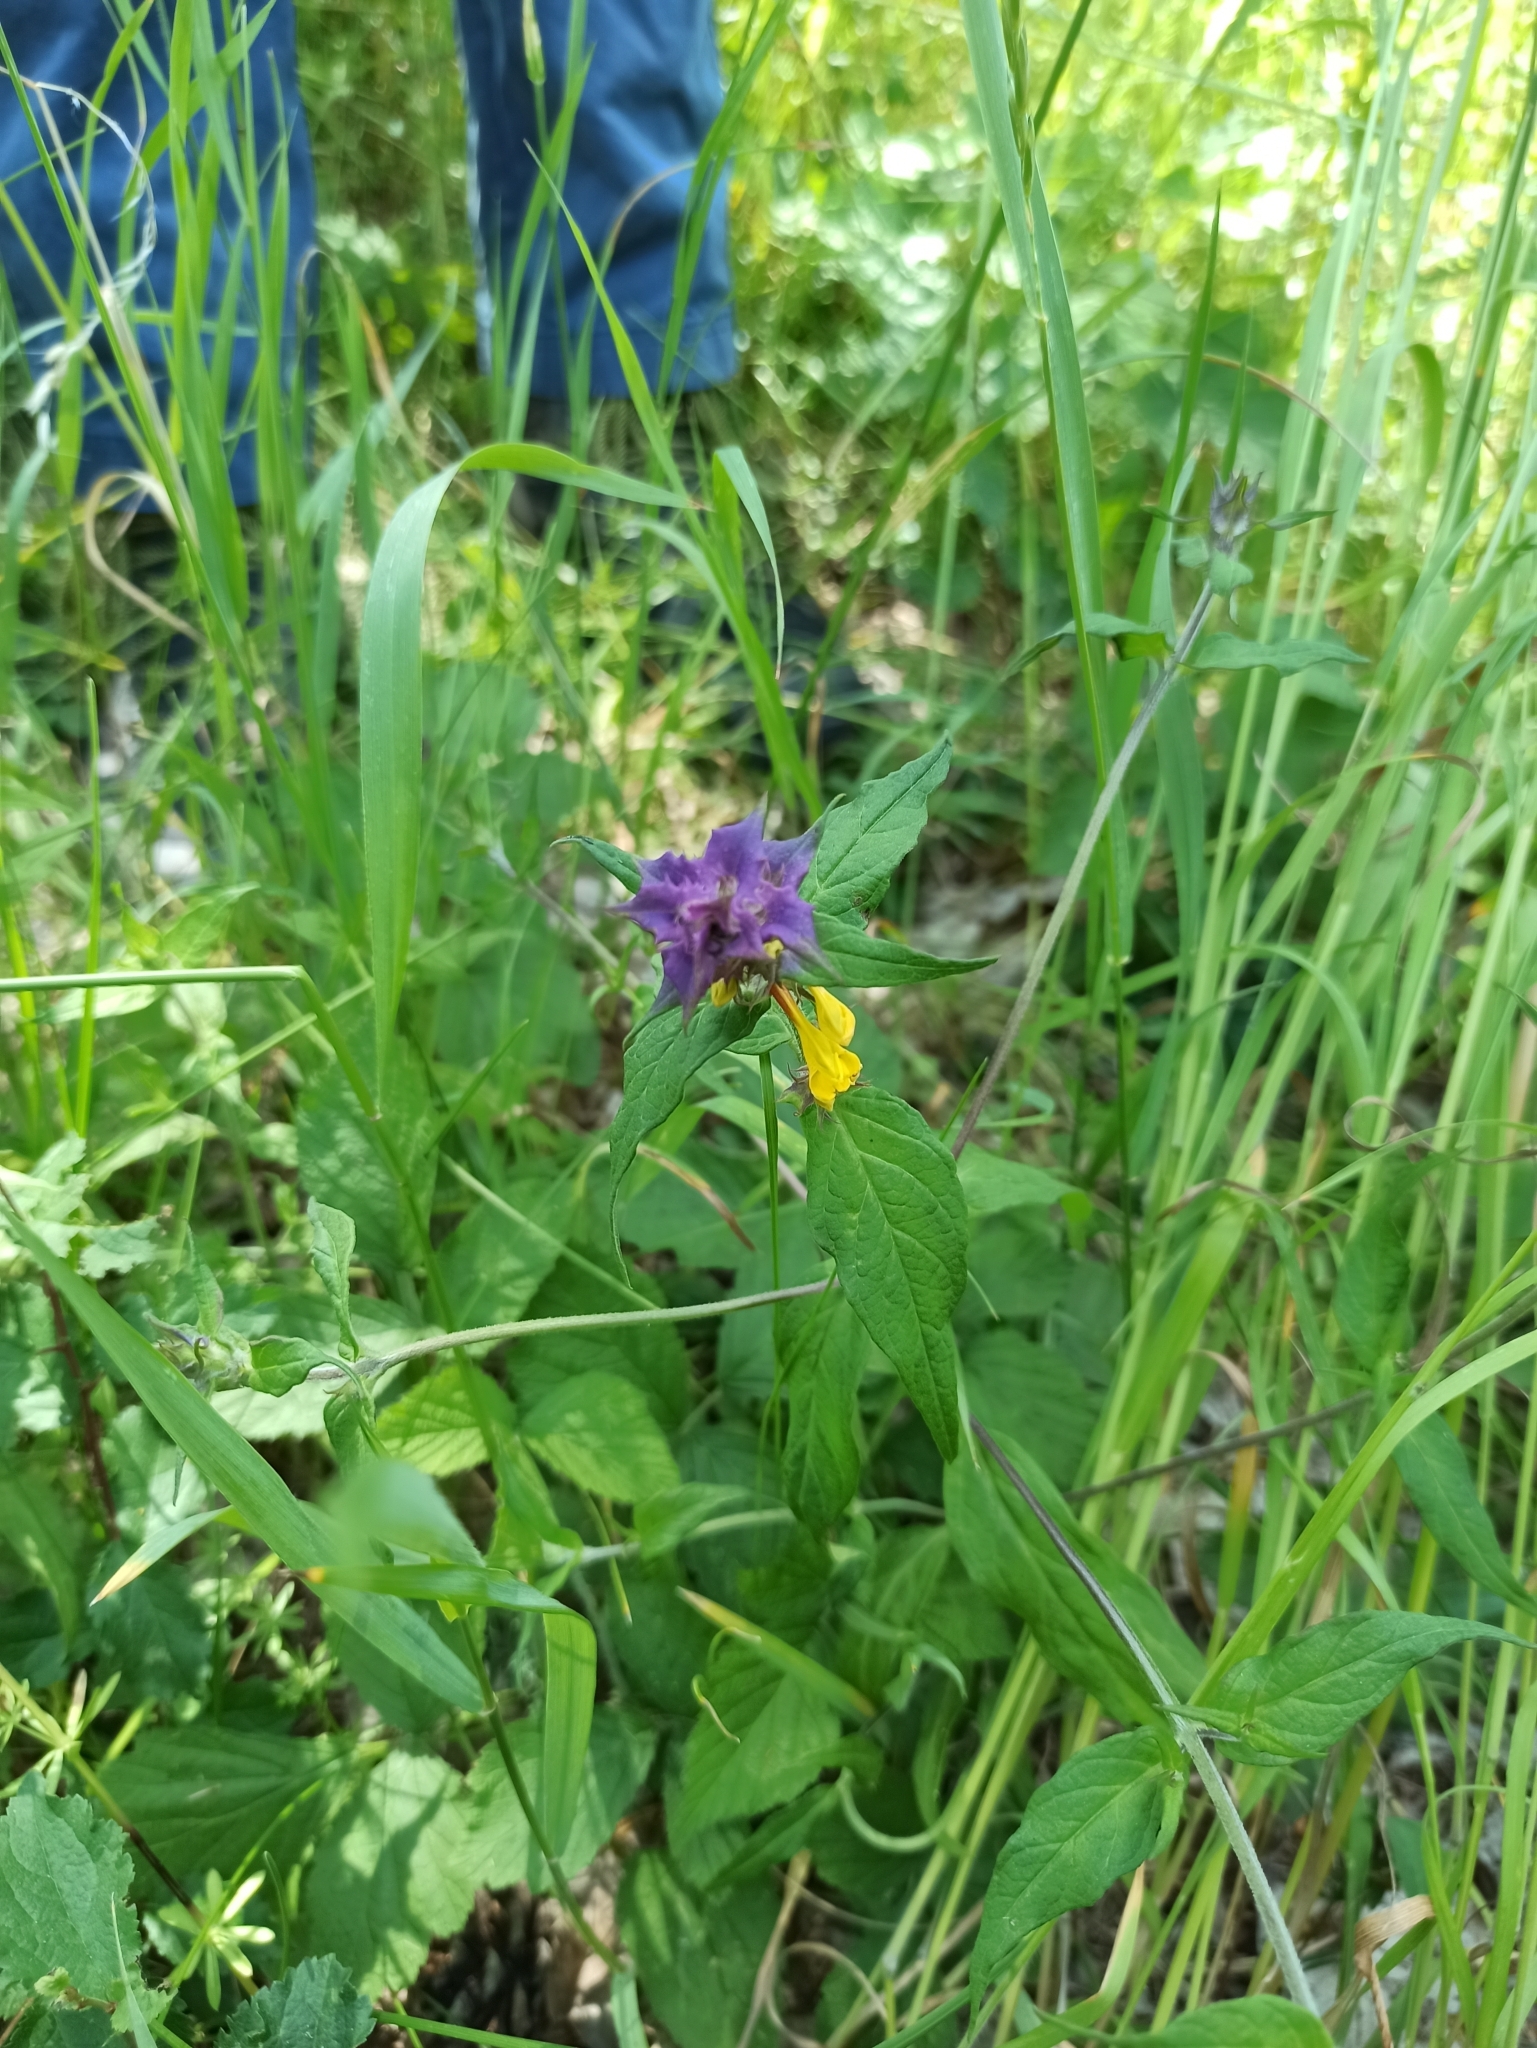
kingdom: Plantae
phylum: Tracheophyta
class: Magnoliopsida
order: Lamiales
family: Orobanchaceae
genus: Melampyrum
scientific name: Melampyrum nemorosum
